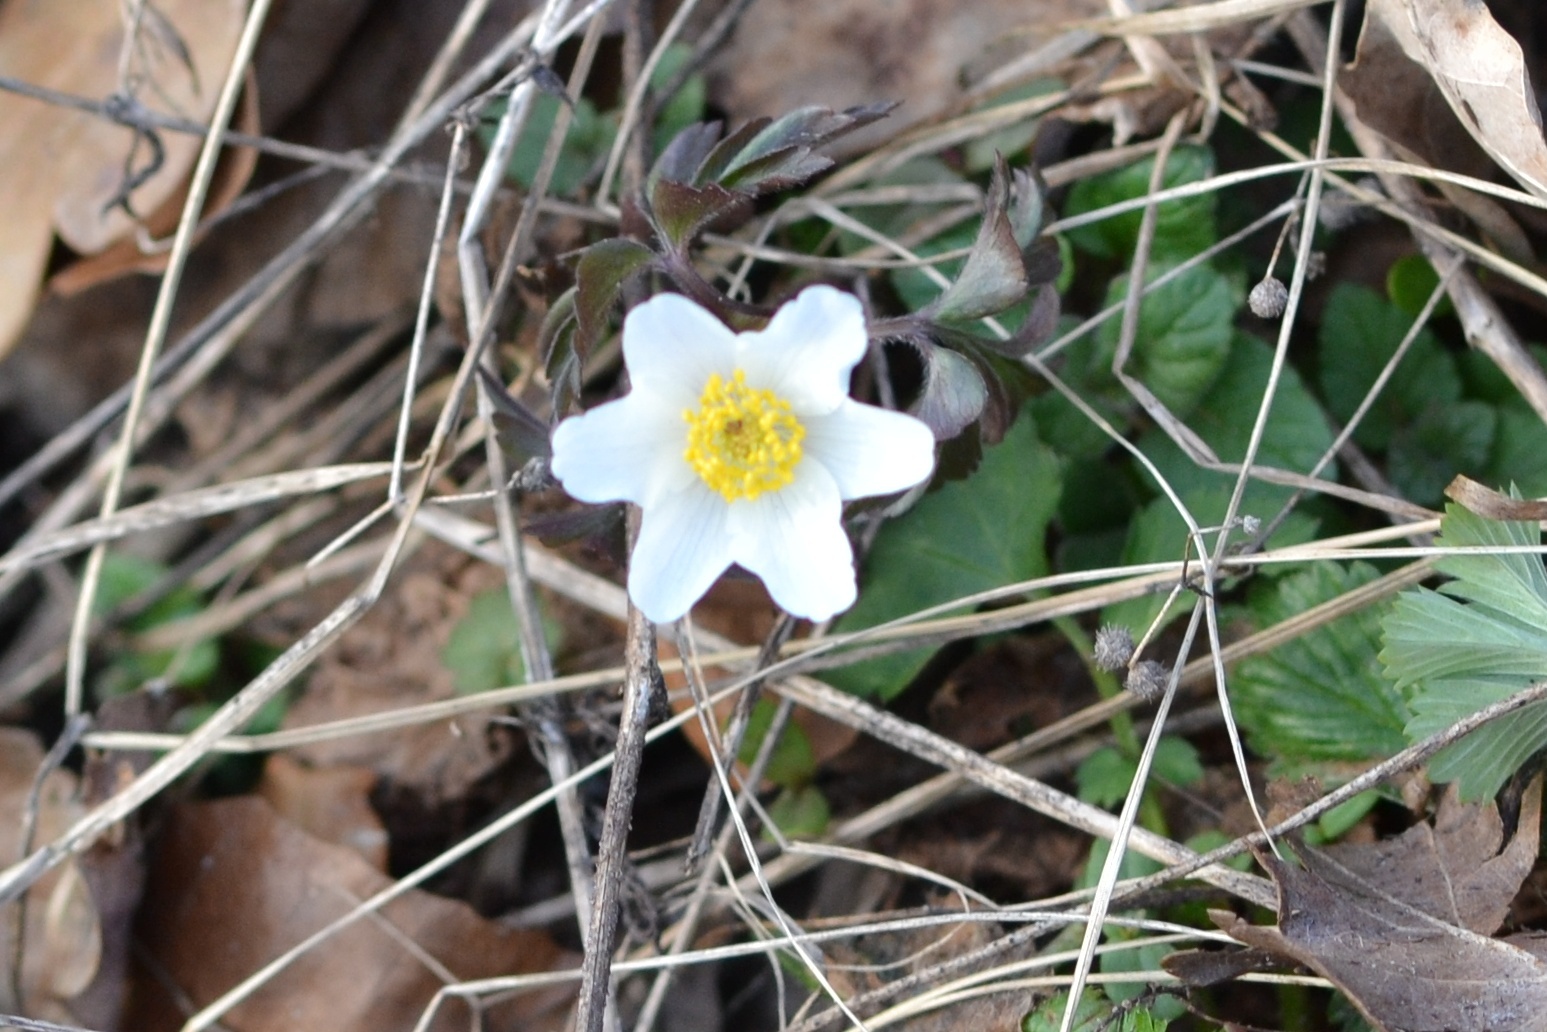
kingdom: Plantae
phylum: Tracheophyta
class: Magnoliopsida
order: Ranunculales
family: Ranunculaceae
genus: Anemone
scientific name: Anemone nemorosa
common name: Wood anemone
